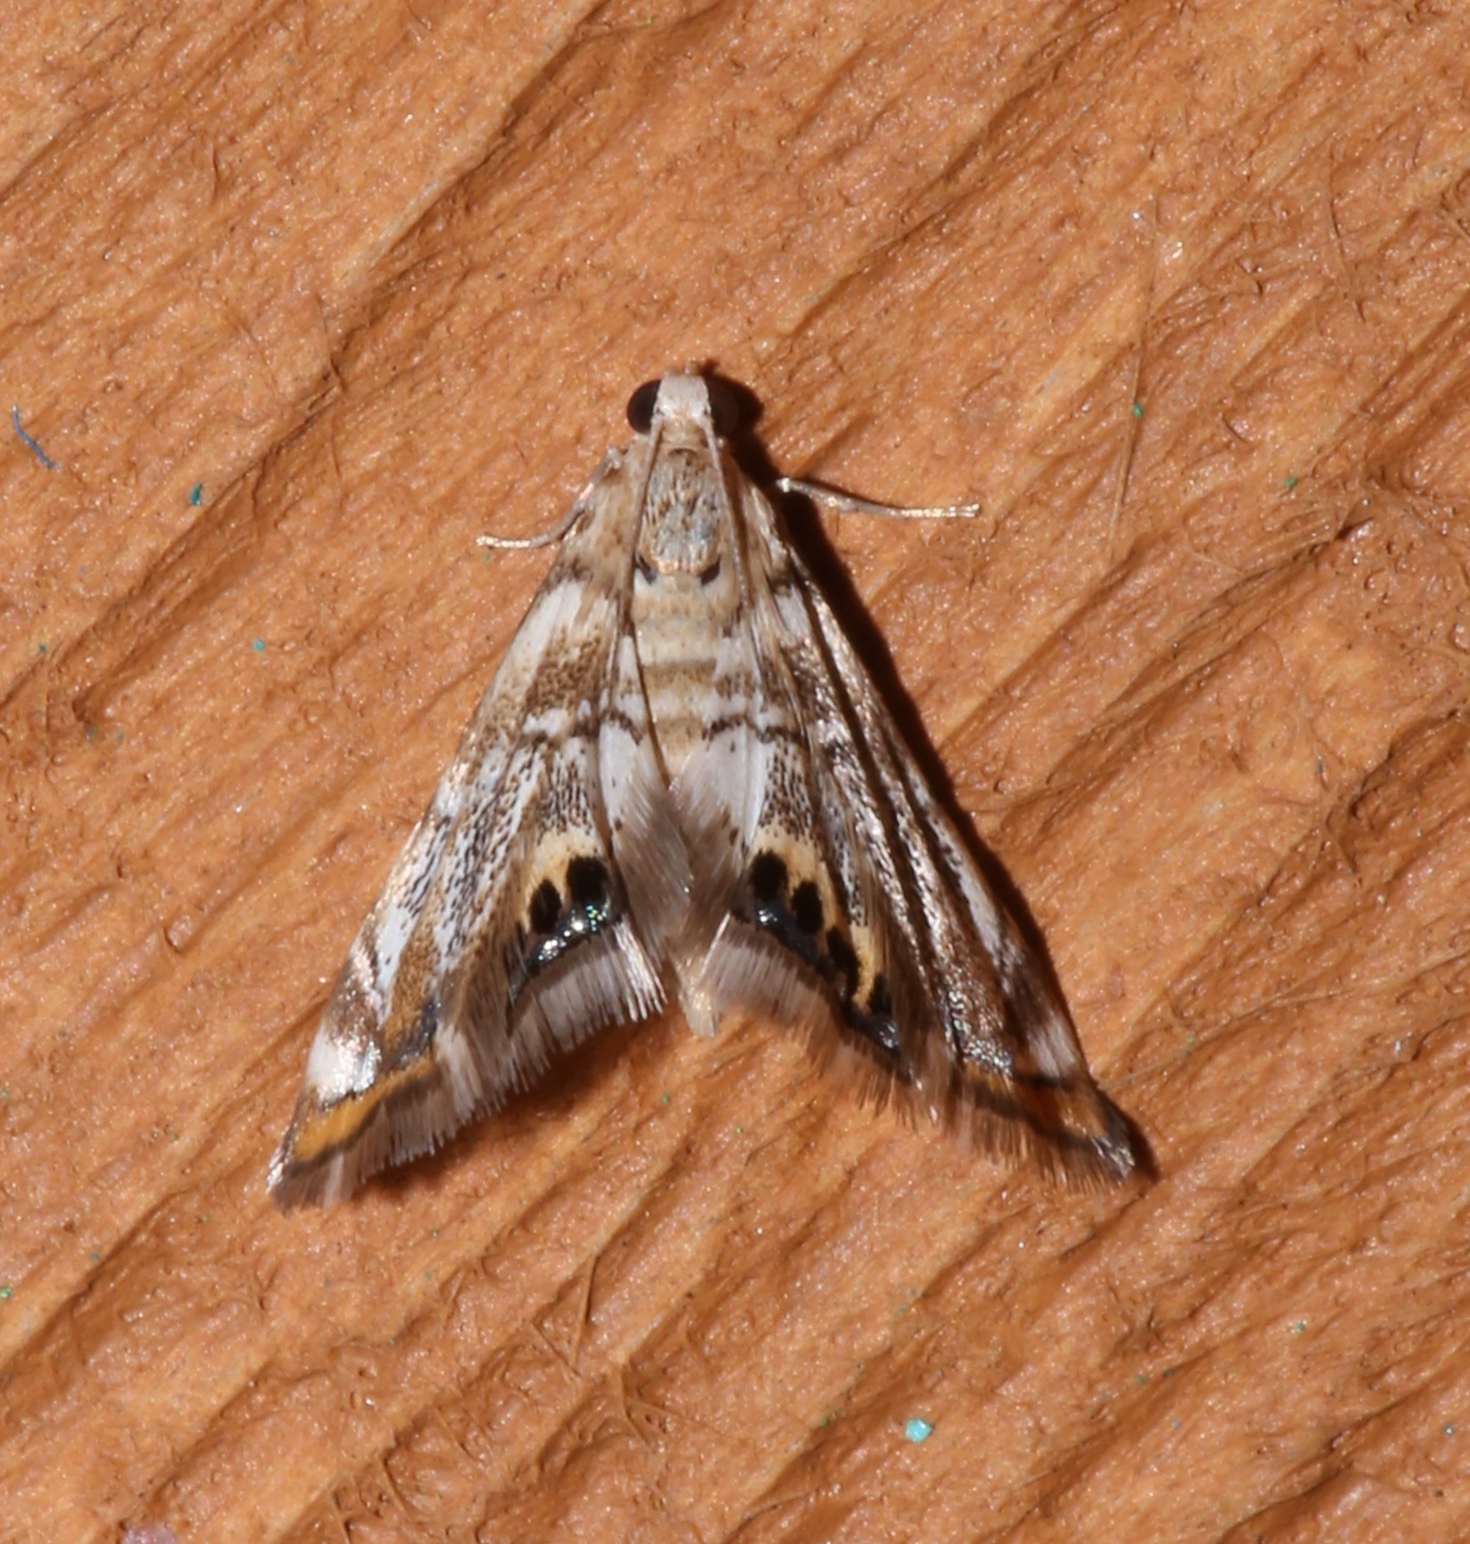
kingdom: Animalia
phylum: Arthropoda
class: Insecta
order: Lepidoptera
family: Crambidae
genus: Eoparargyractis
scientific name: Eoparargyractis irroratalis
